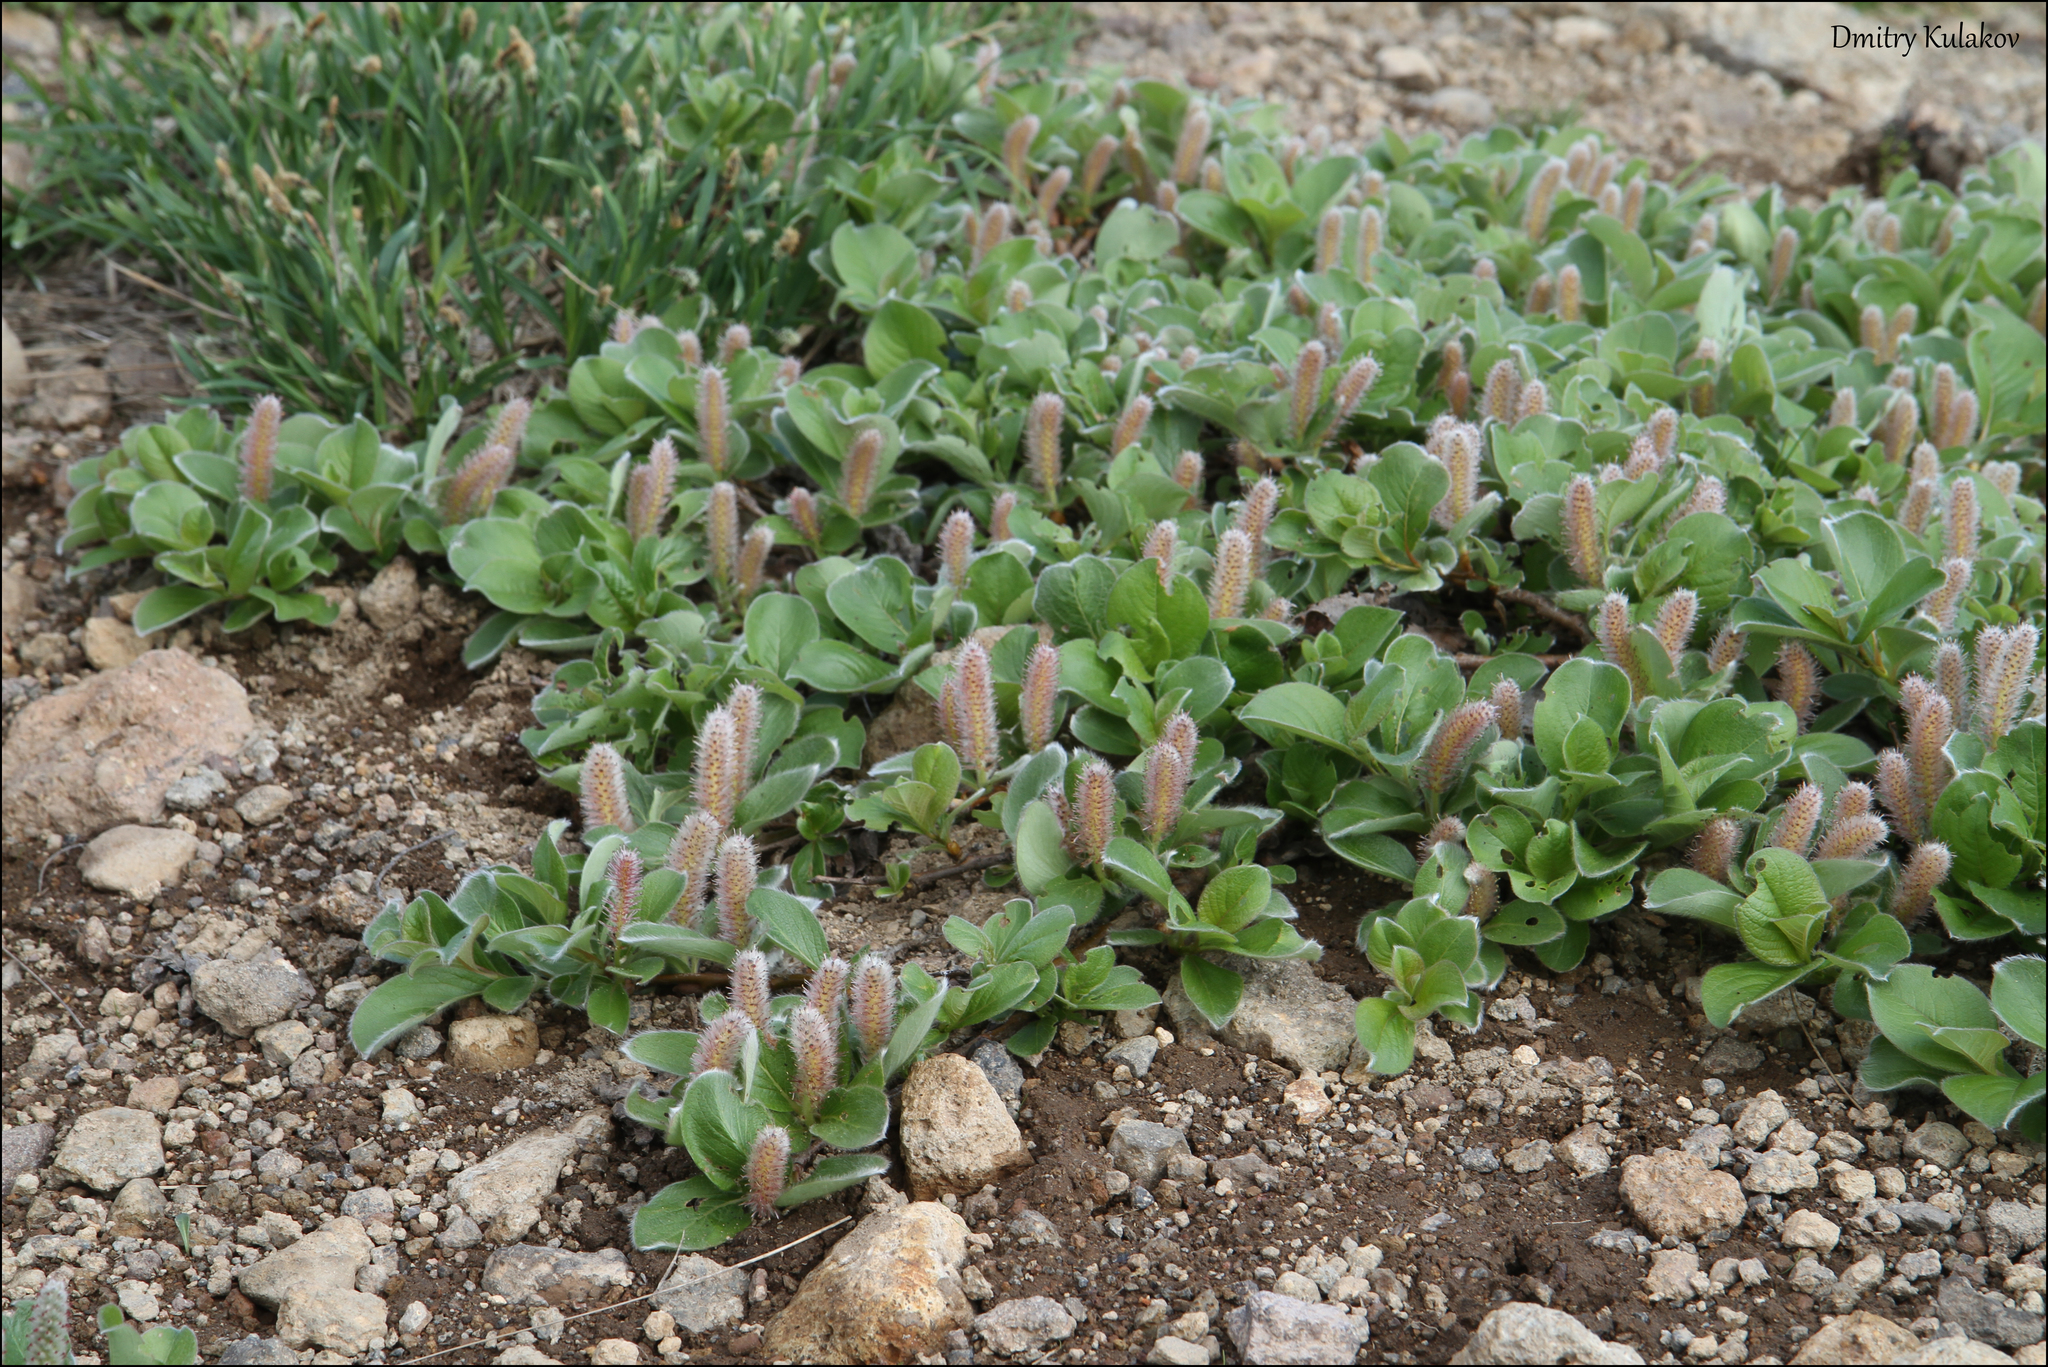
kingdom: Plantae
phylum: Tracheophyta
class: Magnoliopsida
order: Malpighiales
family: Salicaceae
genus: Salix
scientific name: Salix arctica
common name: Arctic willow
